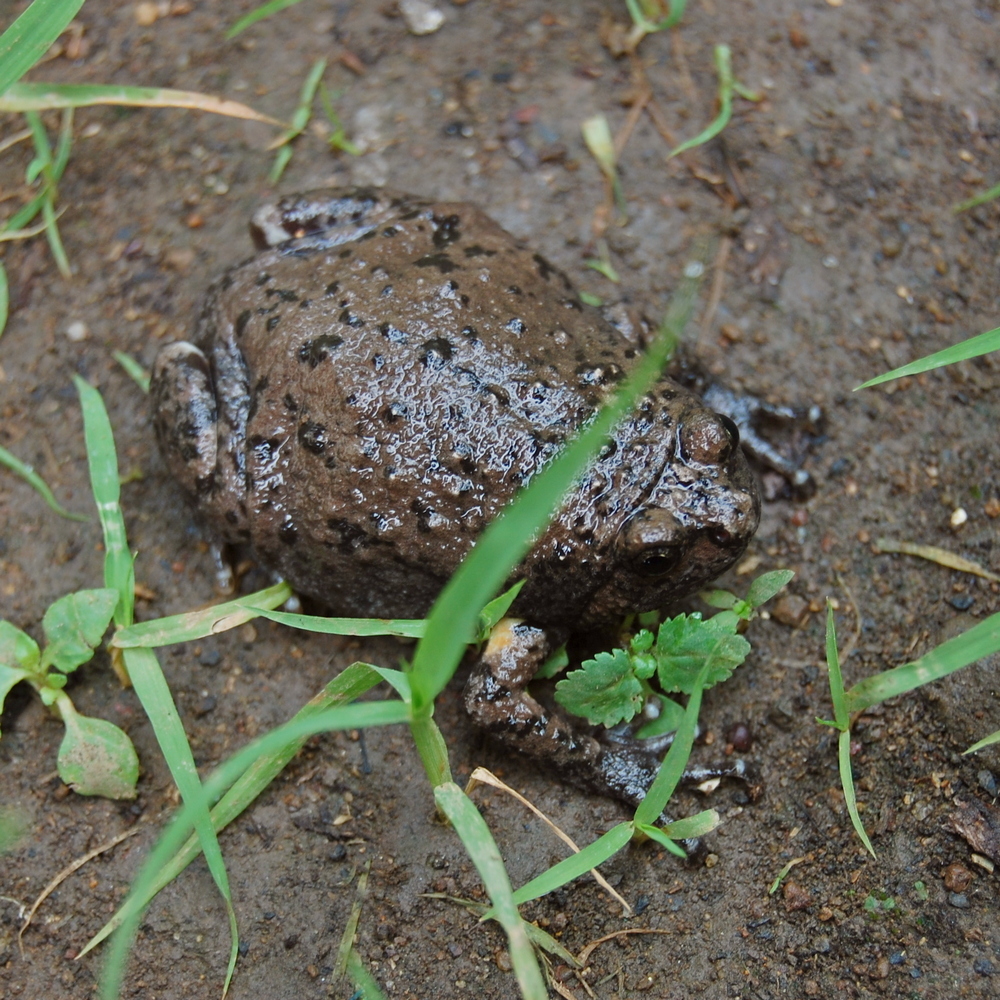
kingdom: Animalia
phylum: Chordata
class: Amphibia
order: Anura
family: Microhylidae
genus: Kaloula
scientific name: Kaloula baleata
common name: Brown,javanese bullfrog
